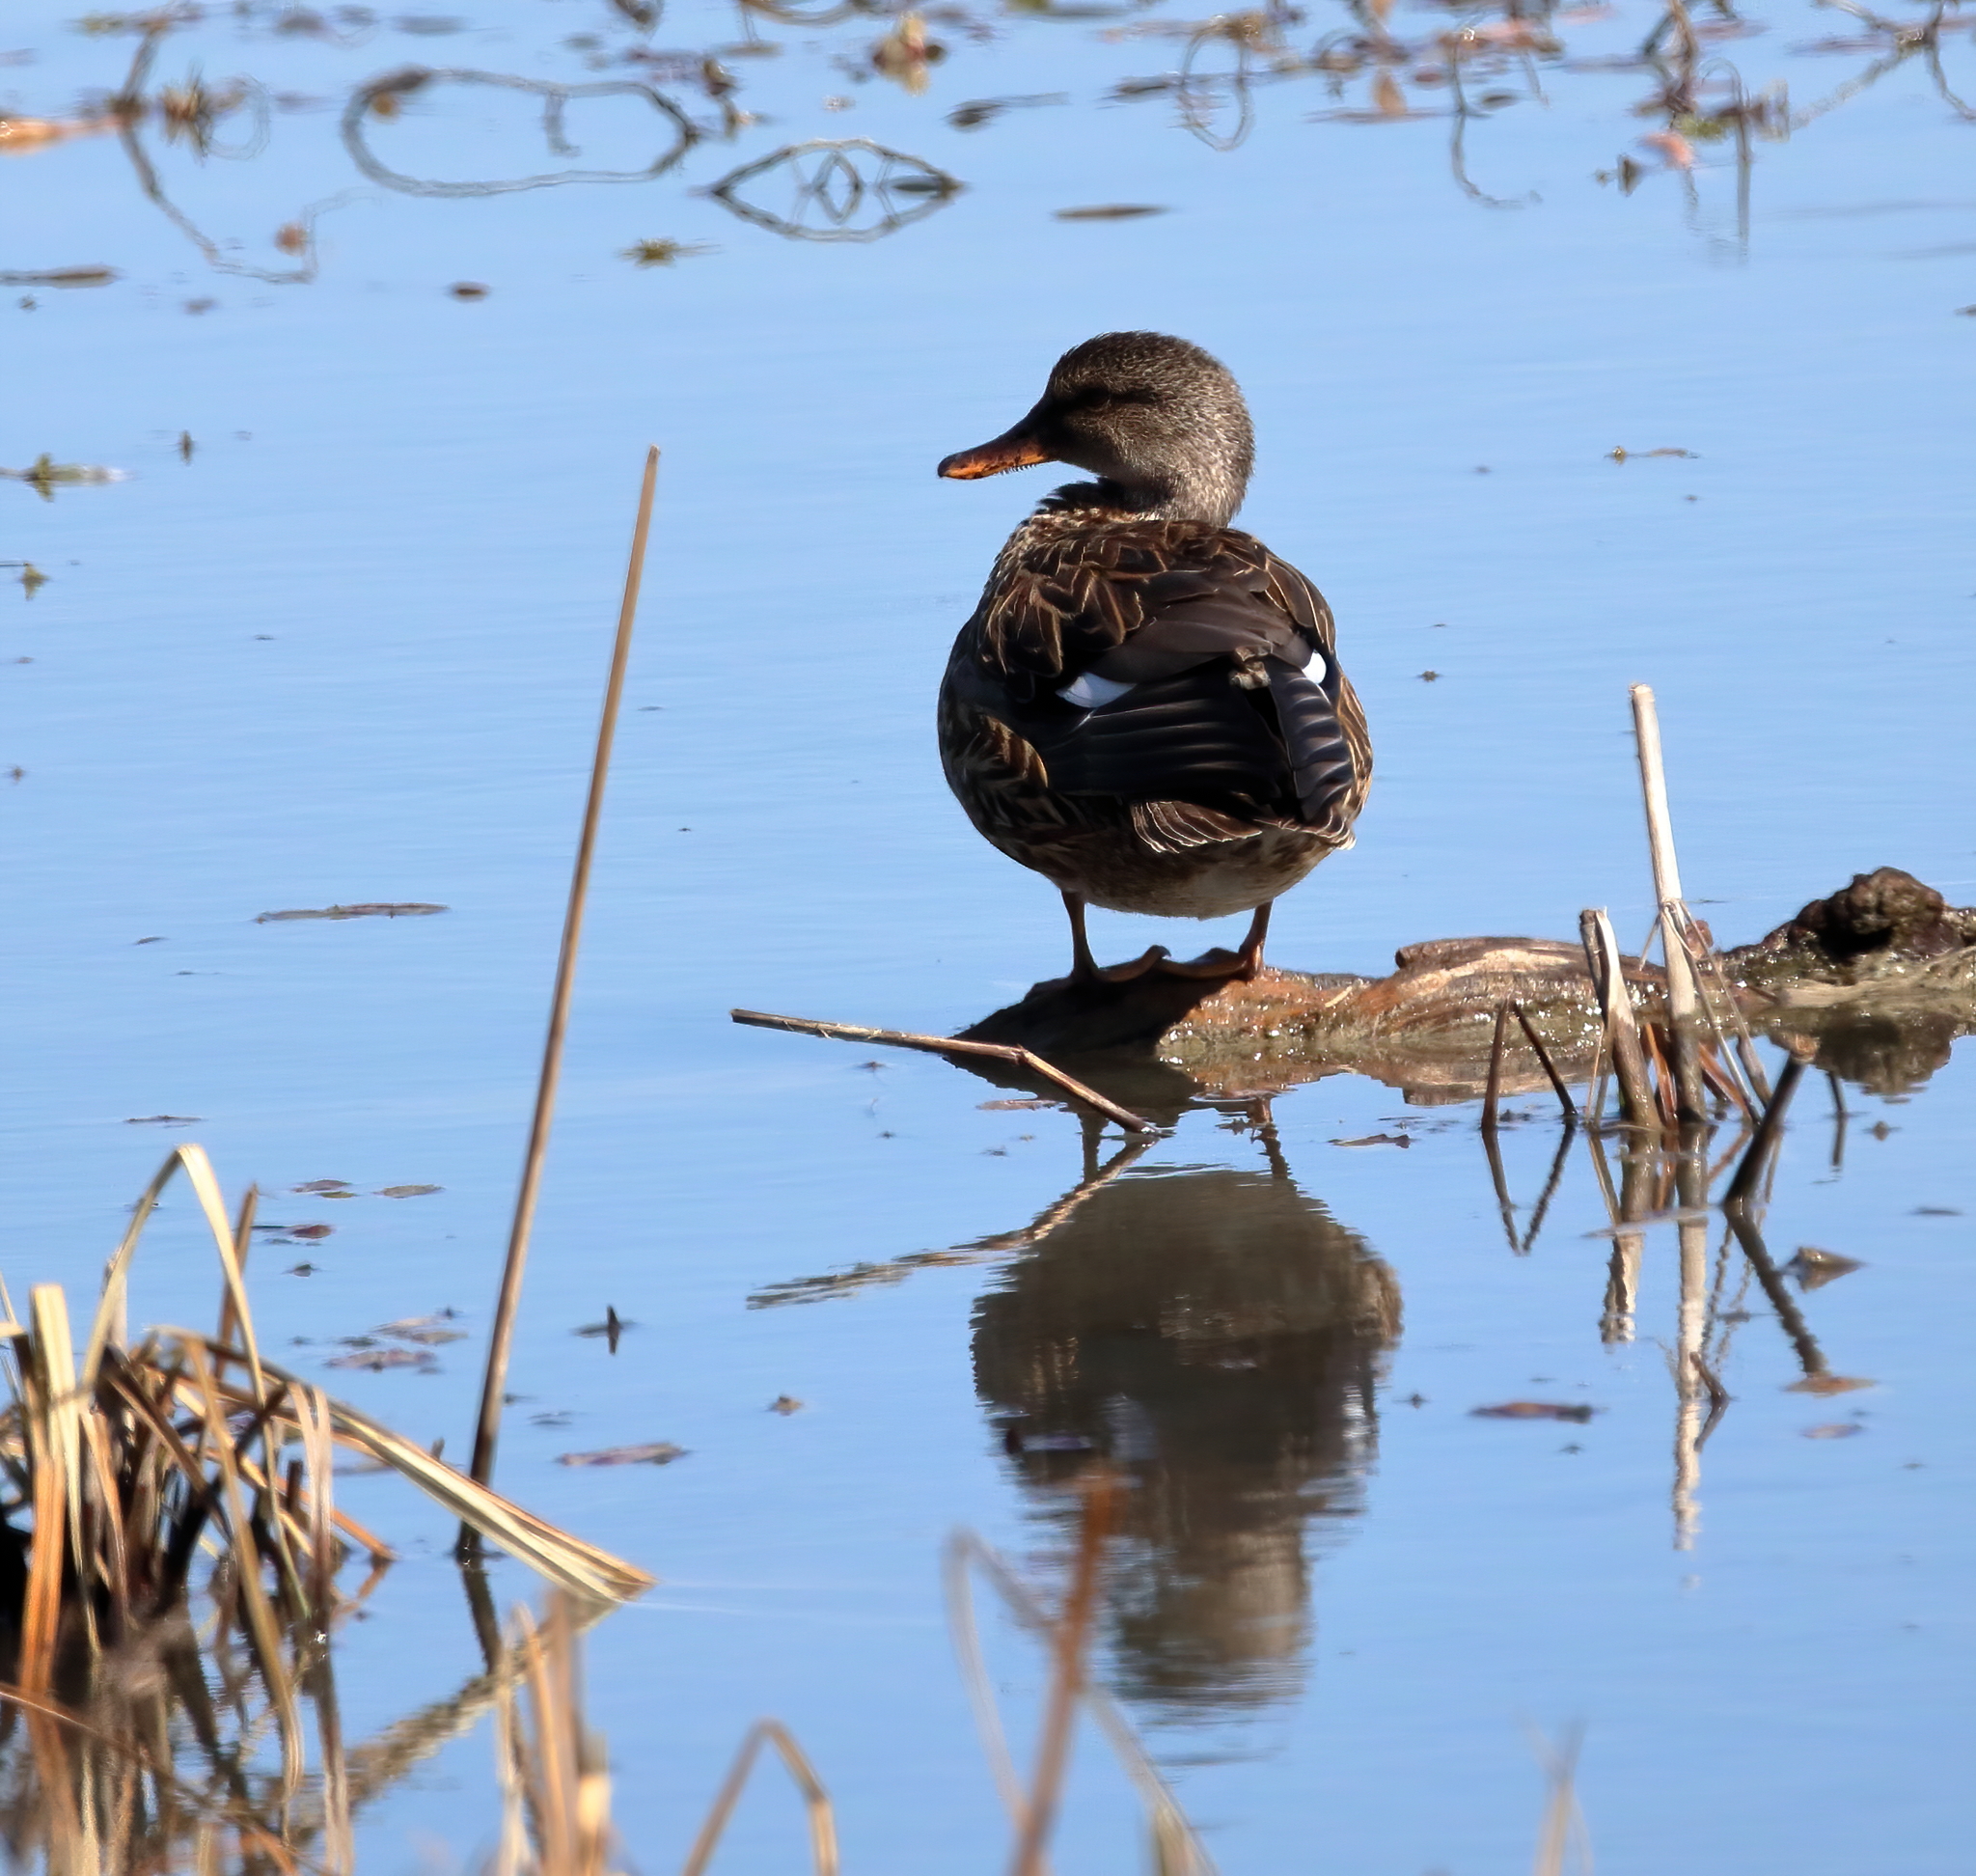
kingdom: Animalia
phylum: Chordata
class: Aves
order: Anseriformes
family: Anatidae
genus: Mareca
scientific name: Mareca strepera
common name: Gadwall
